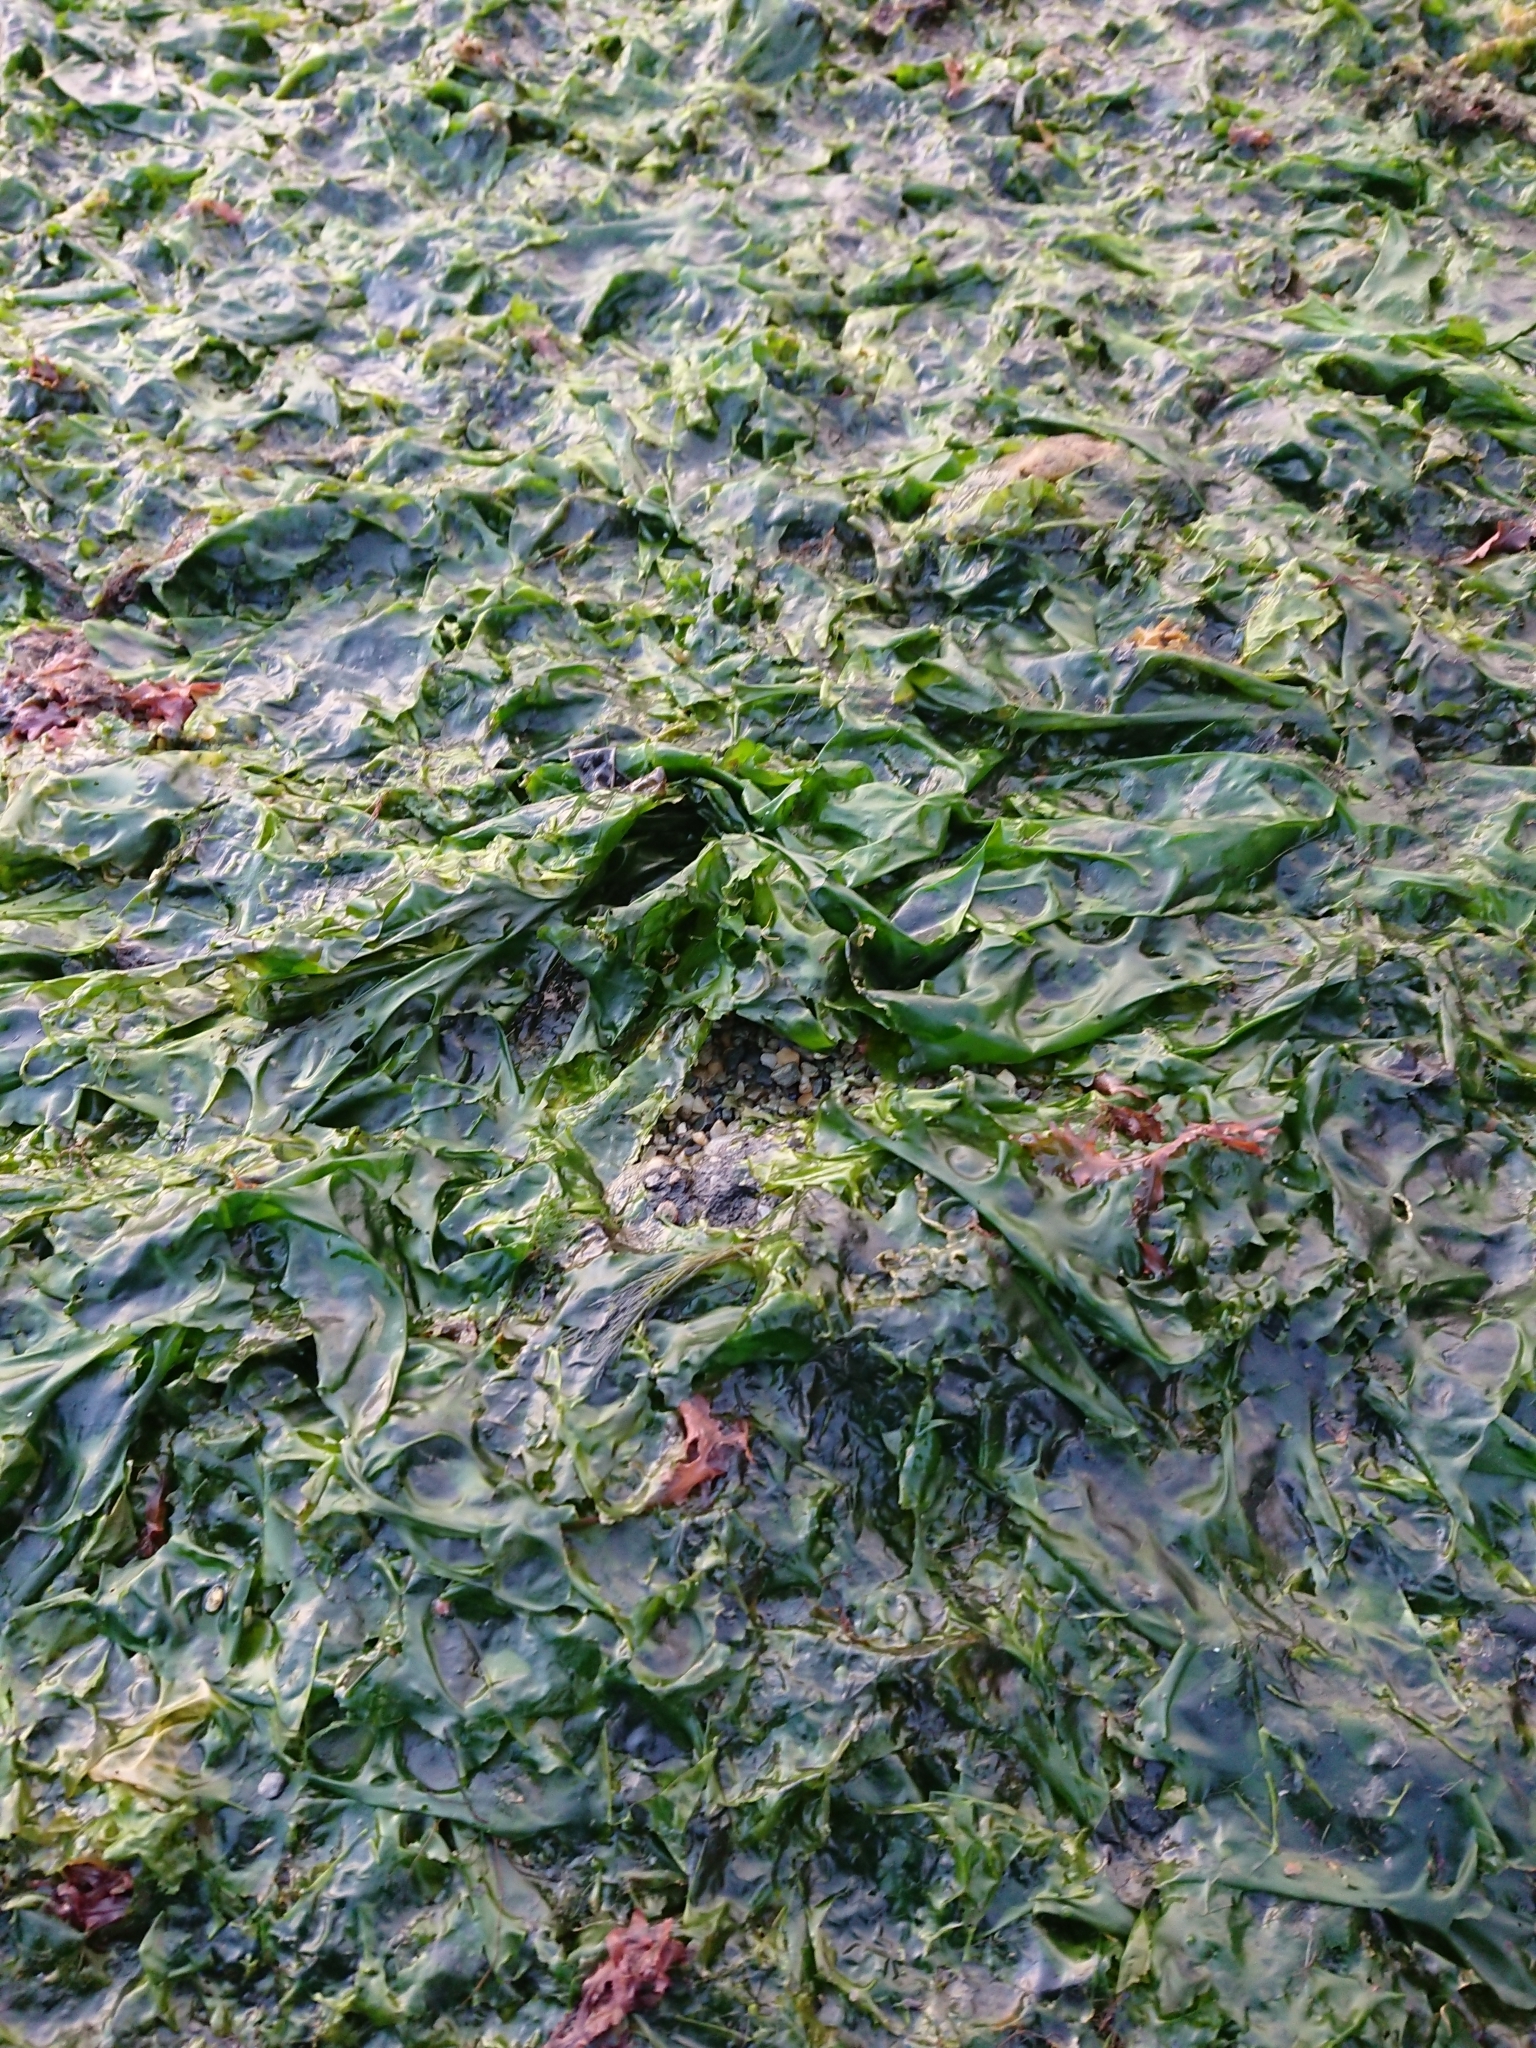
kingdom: Plantae
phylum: Chlorophyta
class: Ulvophyceae
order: Ulvales
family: Ulvaceae
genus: Ulva
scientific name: Ulva lactuca
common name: Sea lettuce
